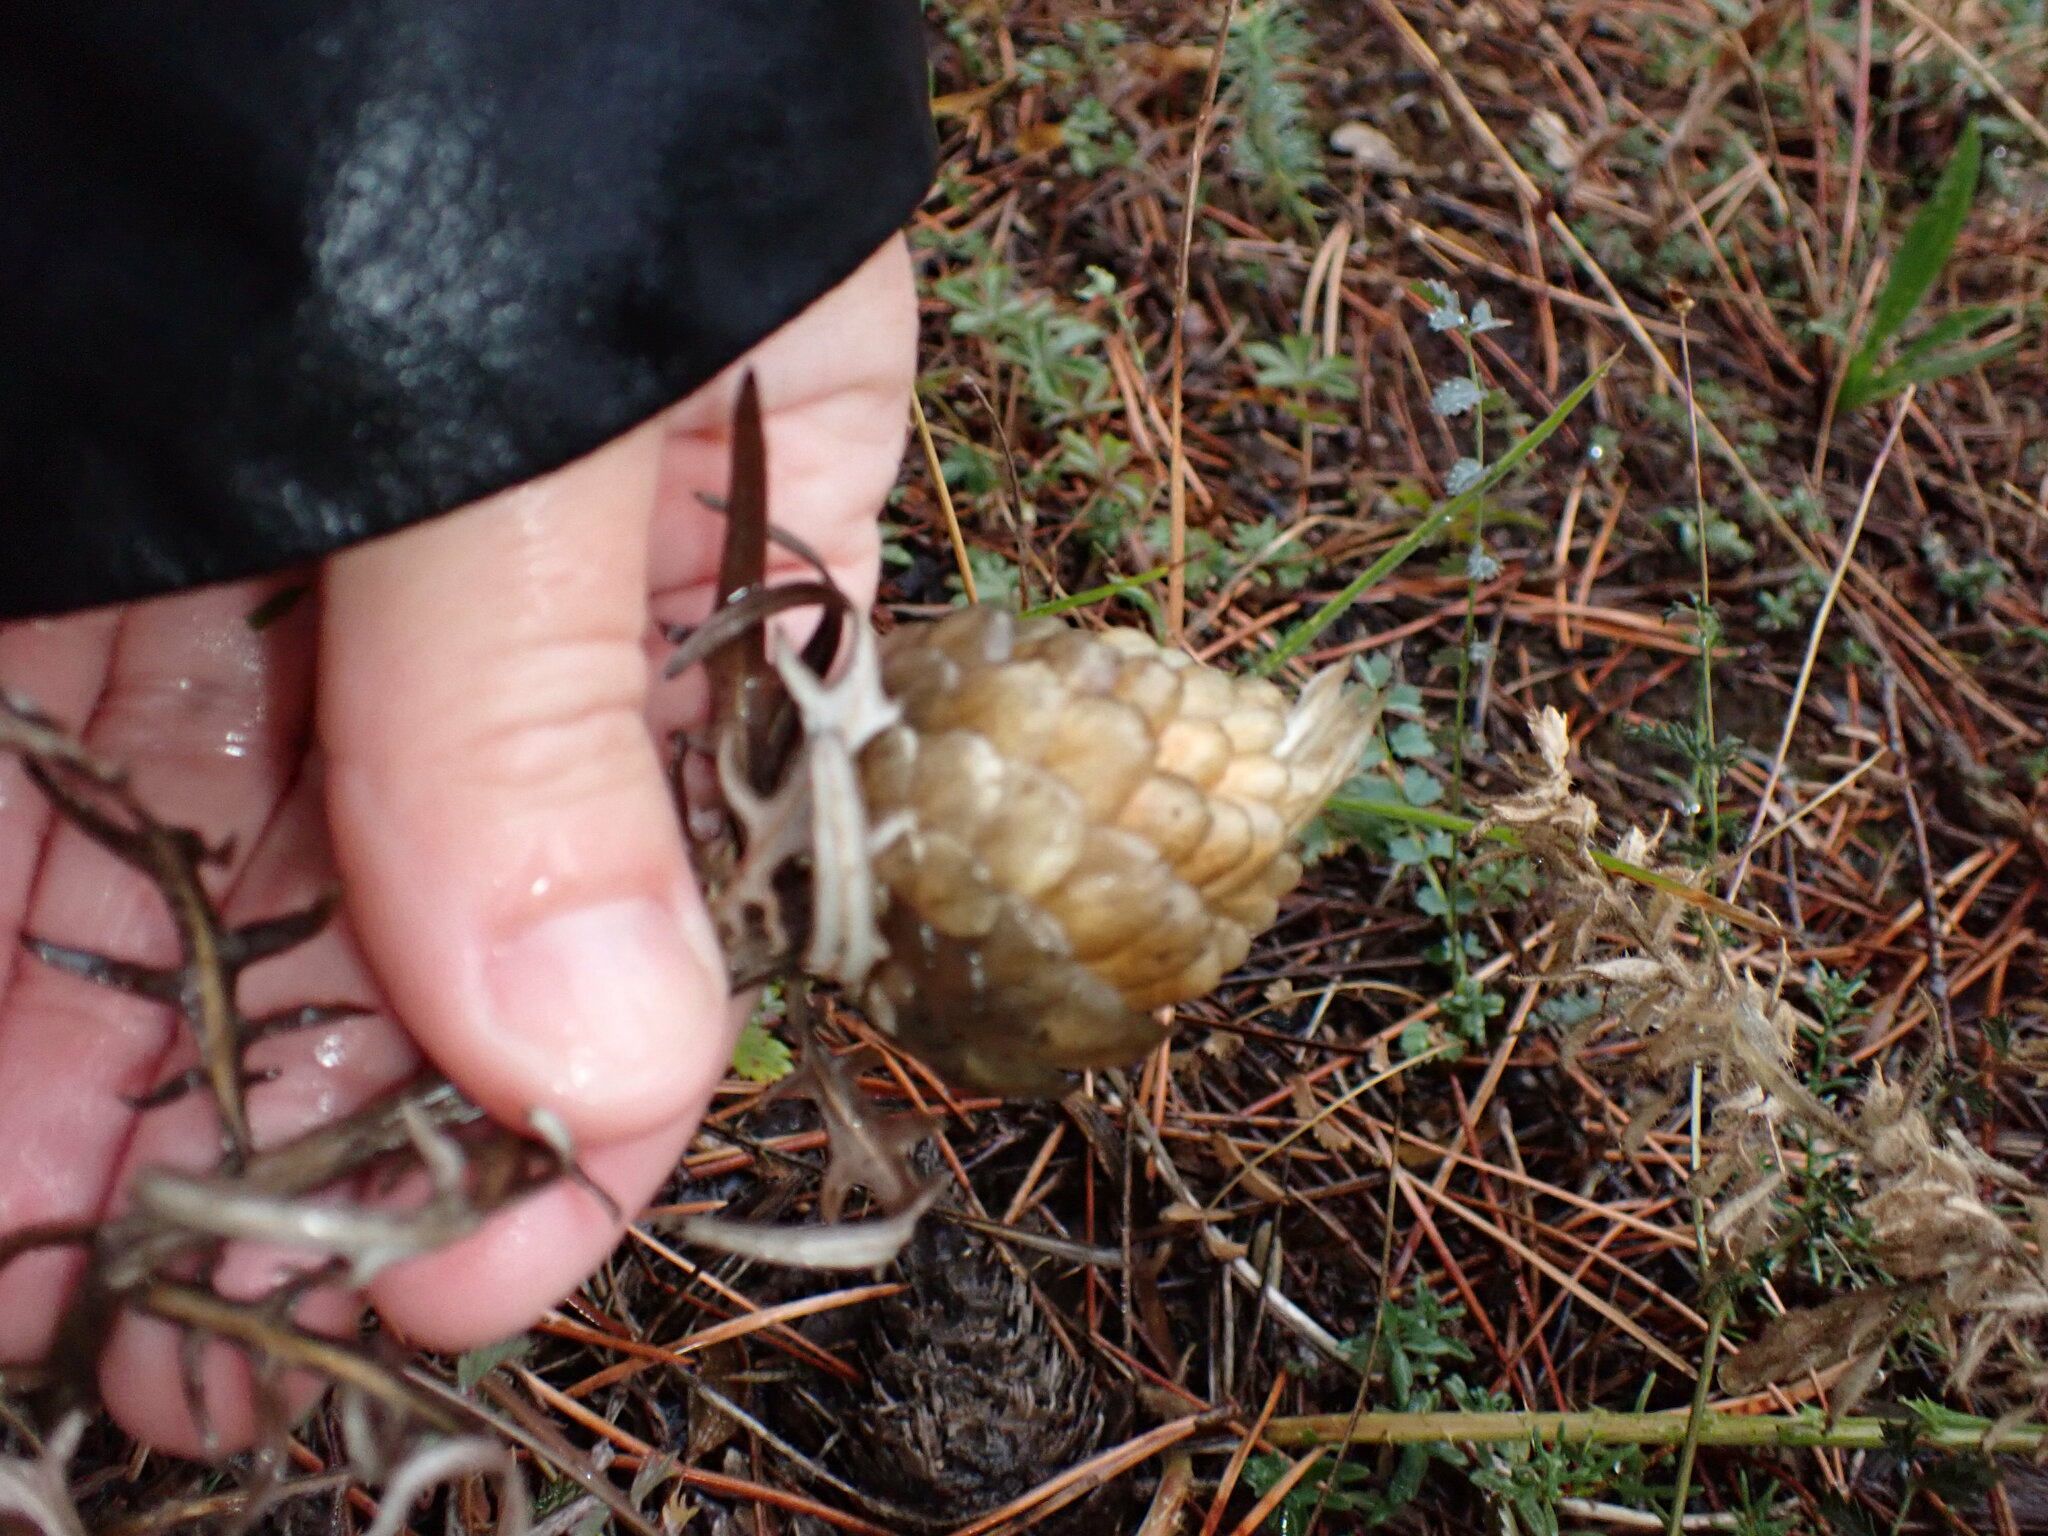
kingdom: Plantae
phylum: Tracheophyta
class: Magnoliopsida
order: Asterales
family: Asteraceae
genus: Leuzea
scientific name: Leuzea conifera
